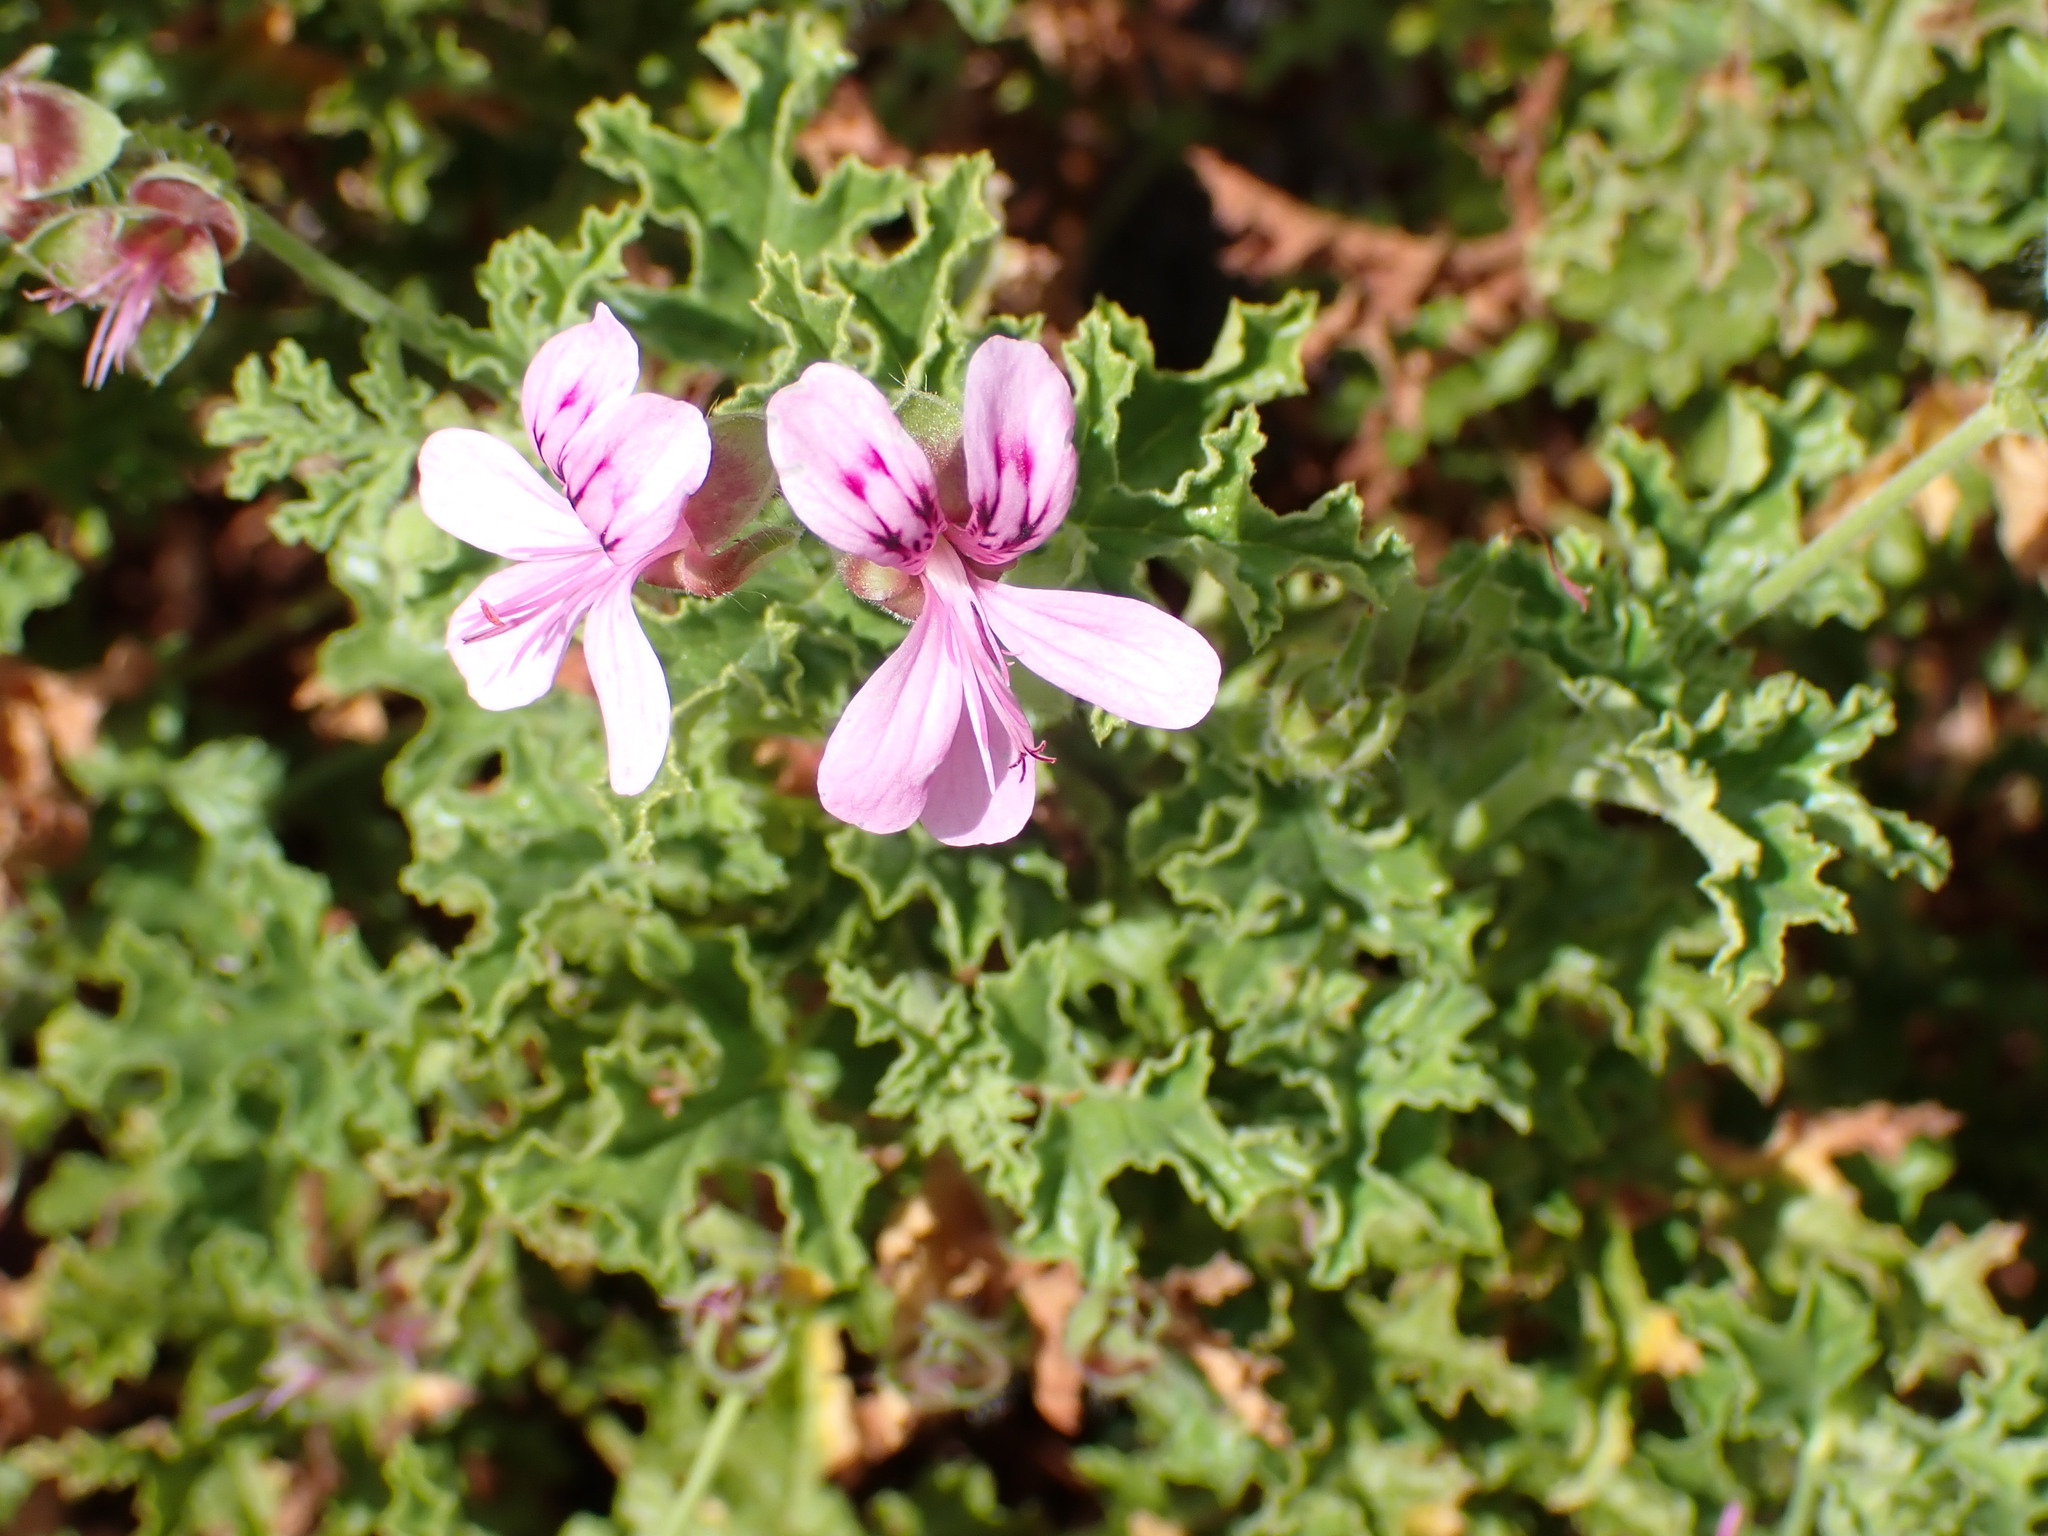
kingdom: Plantae
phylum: Tracheophyta
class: Magnoliopsida
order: Geraniales
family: Geraniaceae
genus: Pelargonium
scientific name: Pelargonium quercifolium
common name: Oakleaf geranium
